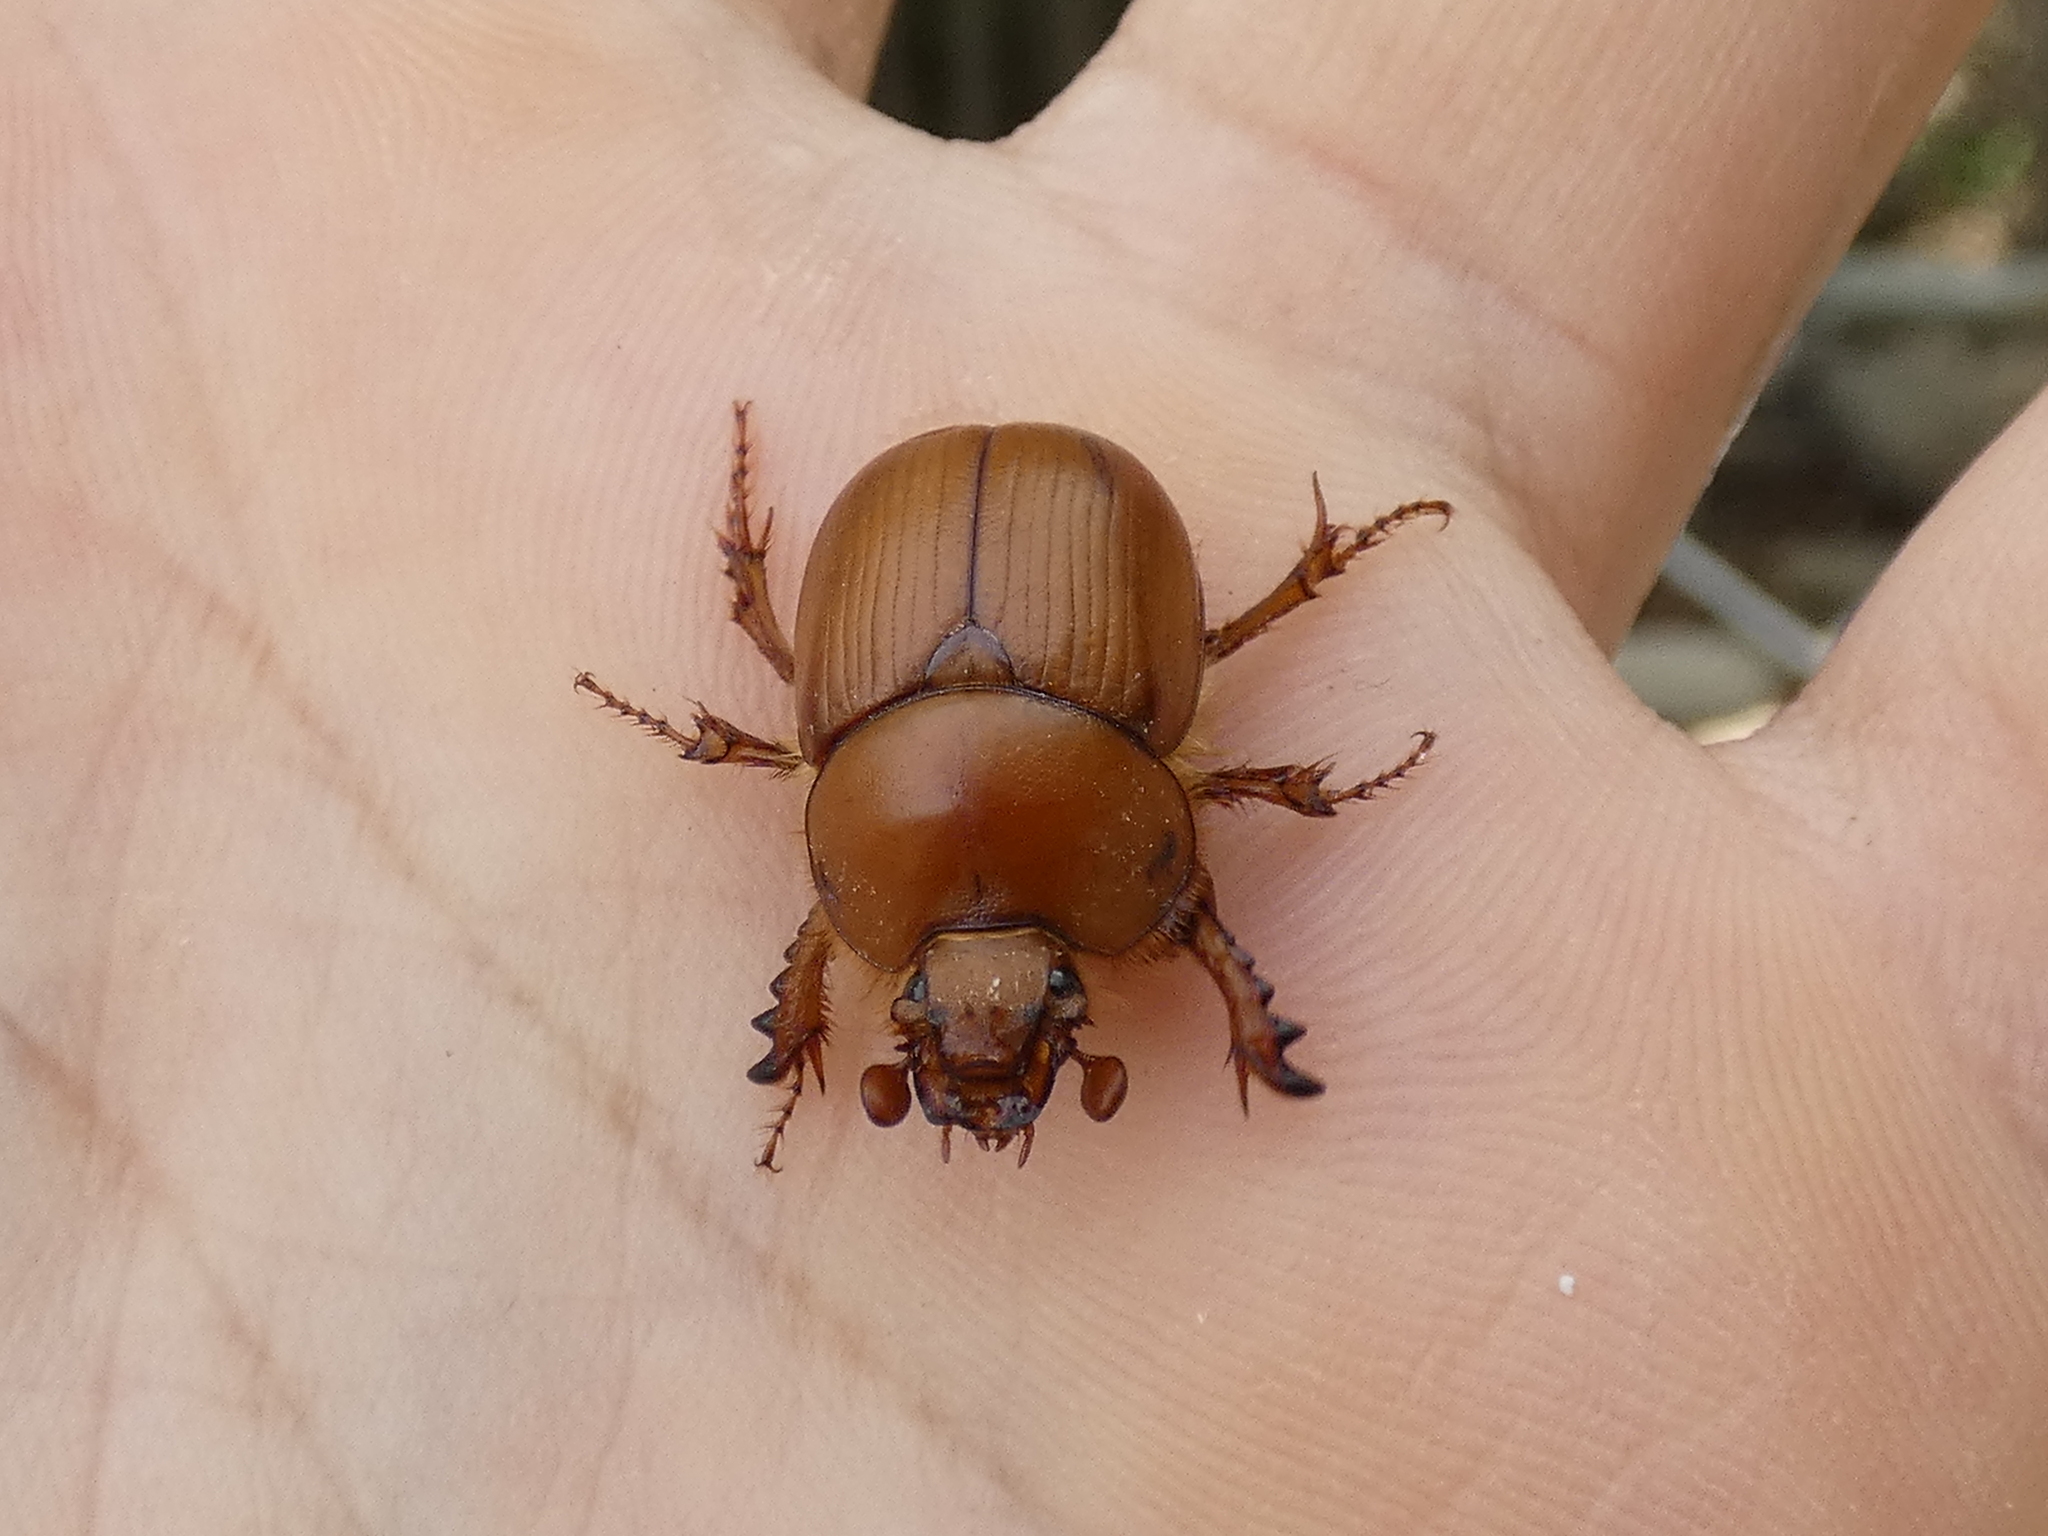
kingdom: Animalia
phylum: Arthropoda
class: Insecta
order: Coleoptera
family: Geotrupidae
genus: Bolborhinum
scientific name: Bolborhinum geotrupoides
